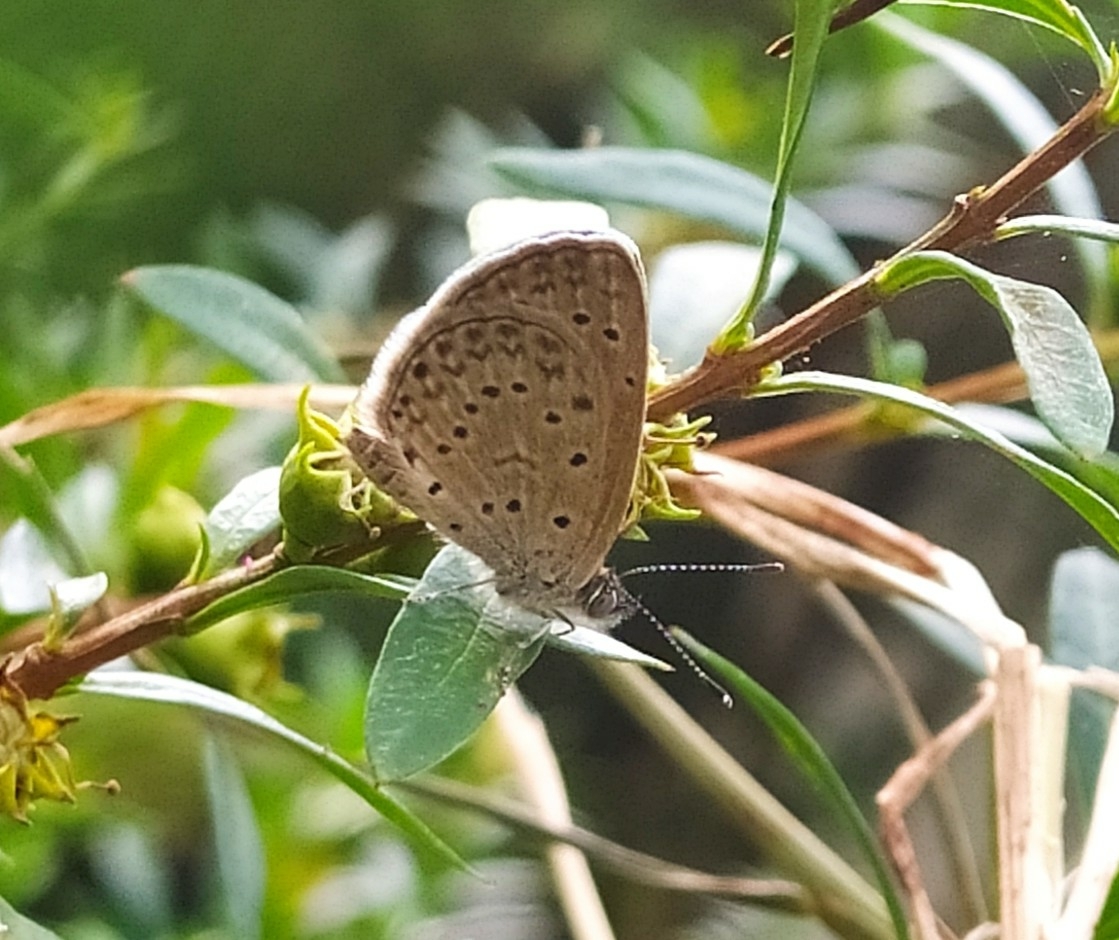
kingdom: Animalia
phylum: Arthropoda
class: Insecta
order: Lepidoptera
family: Lycaenidae
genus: Zizeeria
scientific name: Zizeeria knysna
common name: African grass blue
